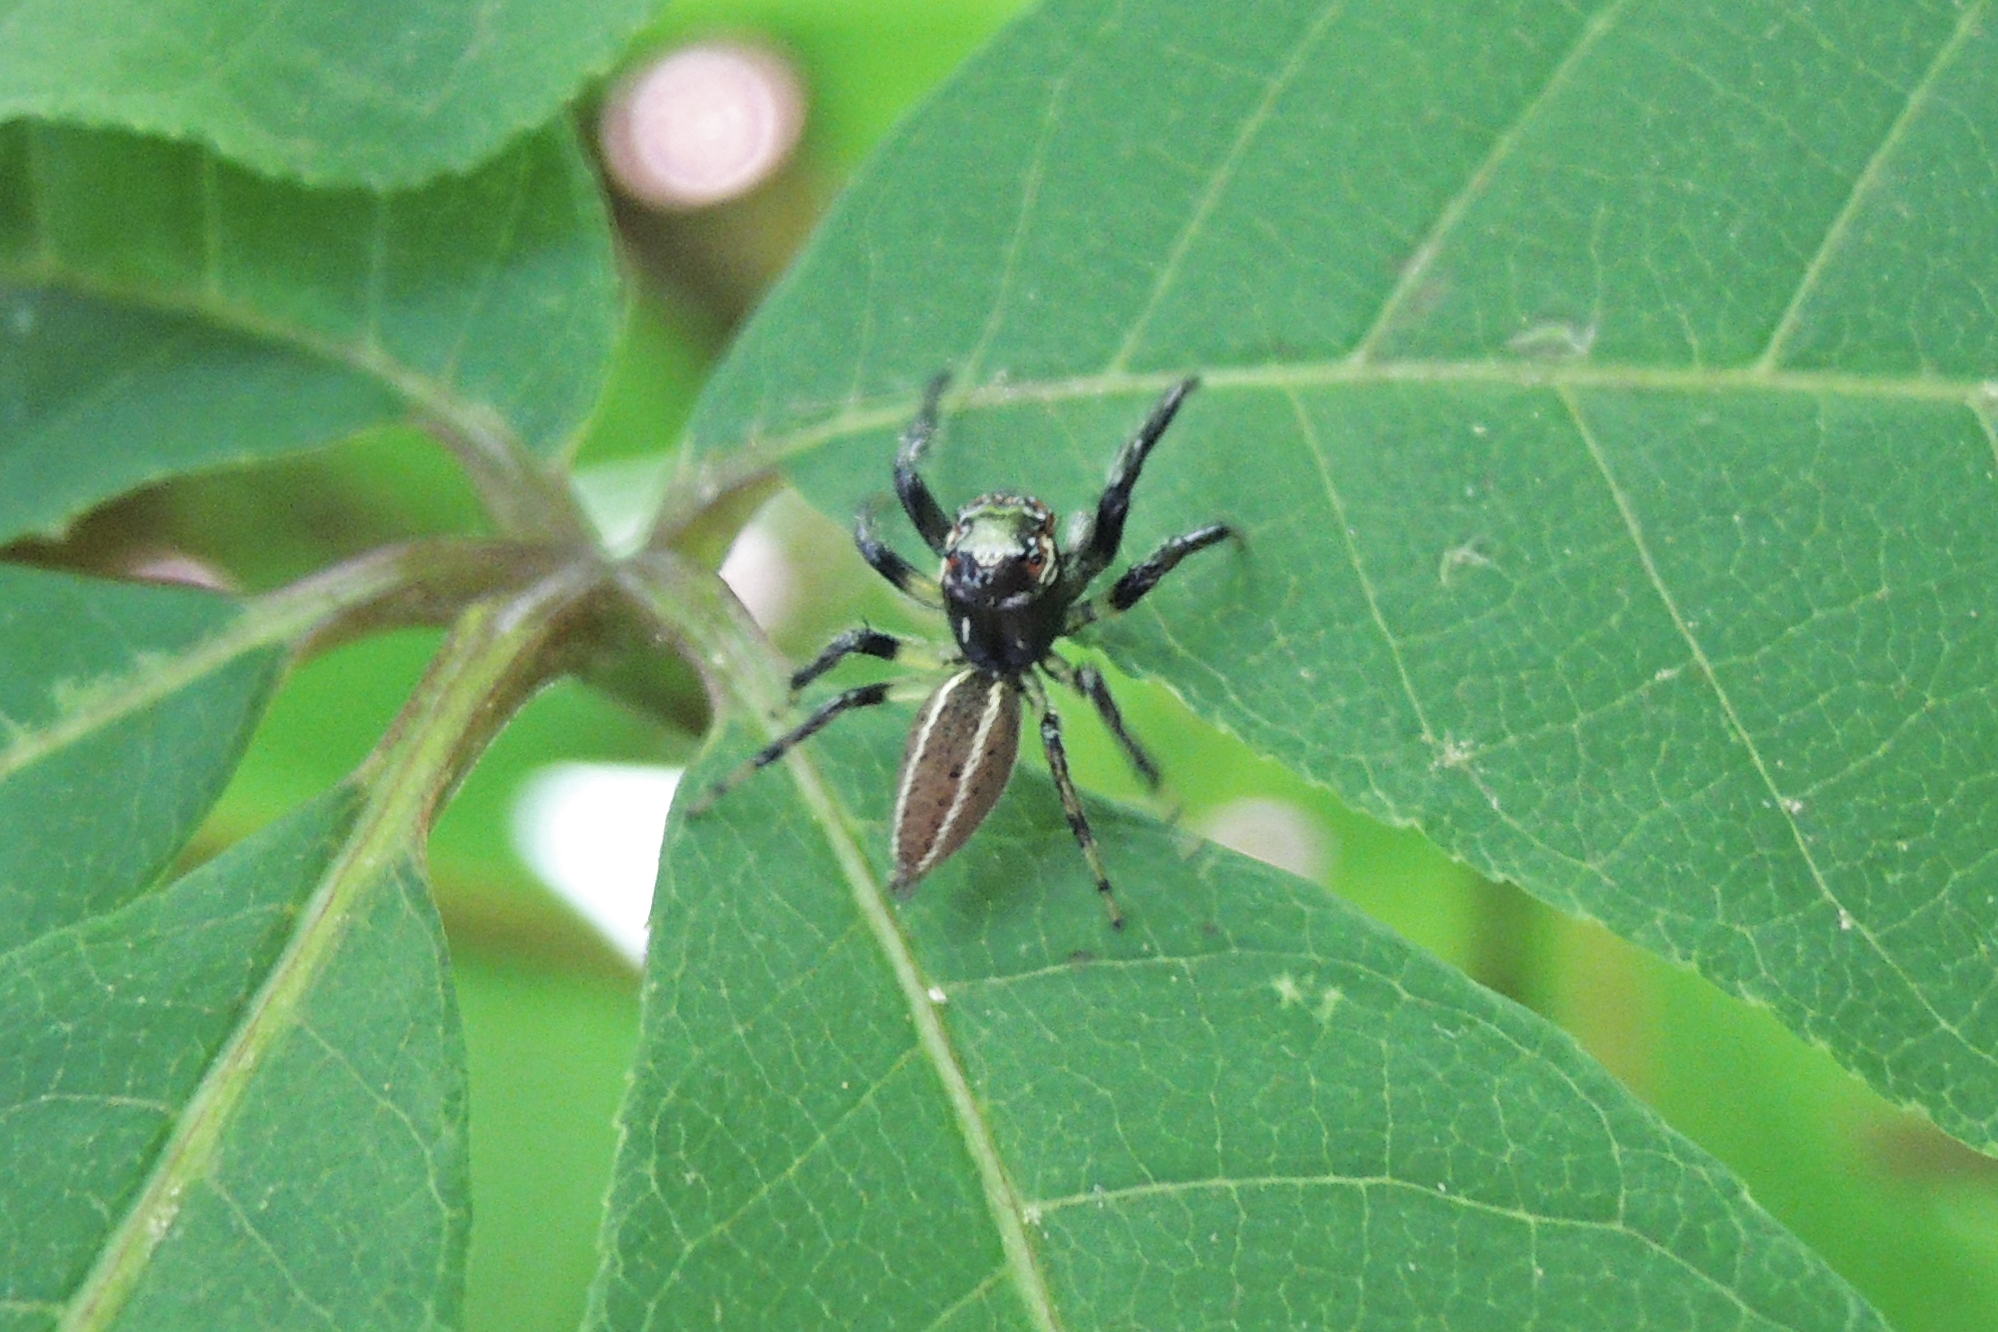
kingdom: Animalia
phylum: Arthropoda
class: Arachnida
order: Araneae
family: Salticidae
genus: Colonus
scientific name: Colonus sylvanus
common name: Jumping spiders
